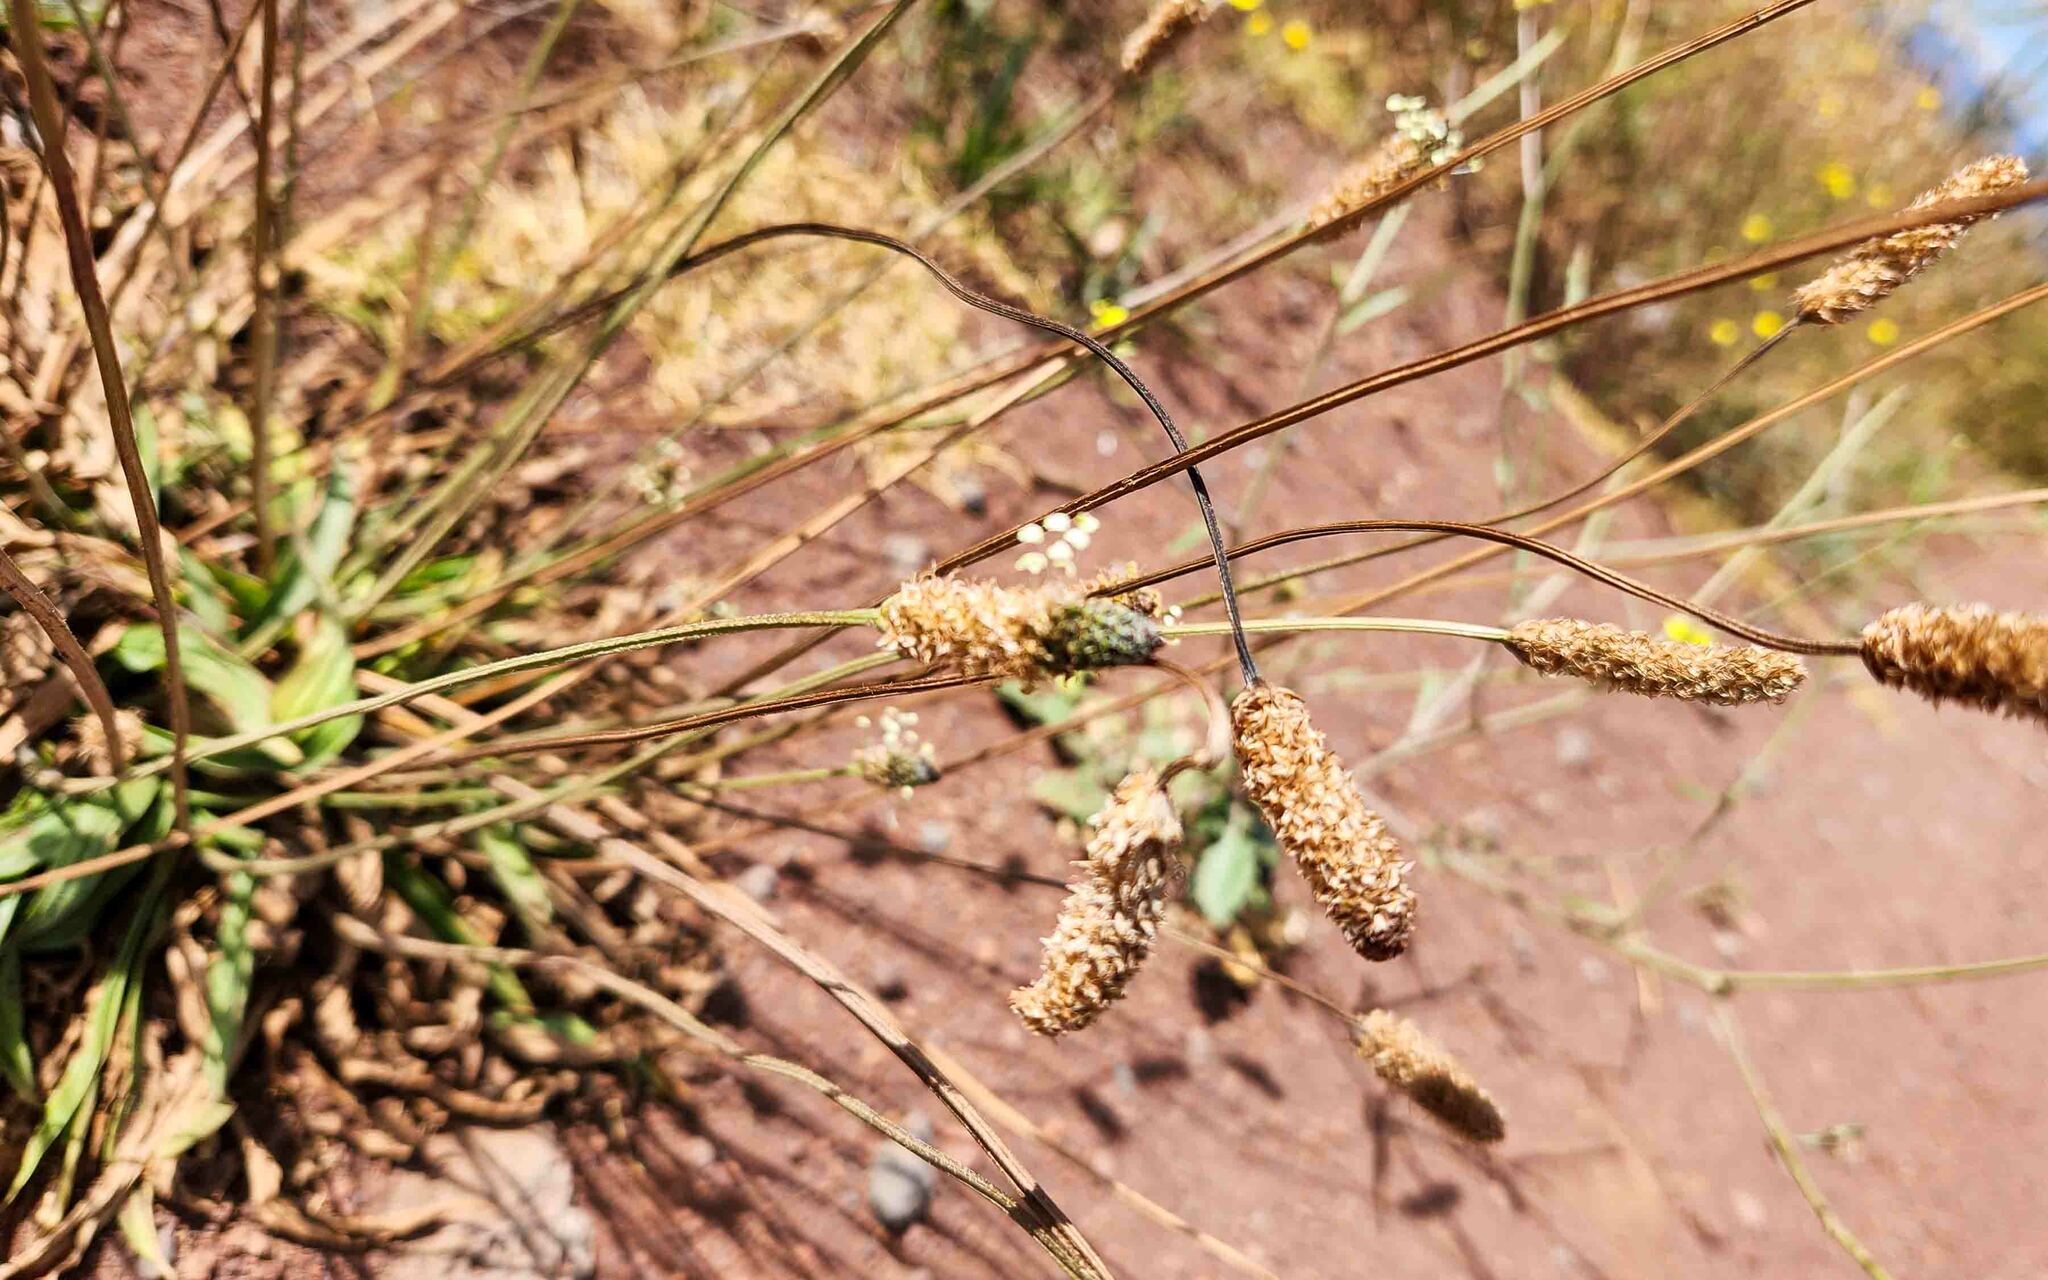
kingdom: Plantae
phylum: Tracheophyta
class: Magnoliopsida
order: Lamiales
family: Plantaginaceae
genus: Plantago
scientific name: Plantago lanceolata
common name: Ribwort plantain
